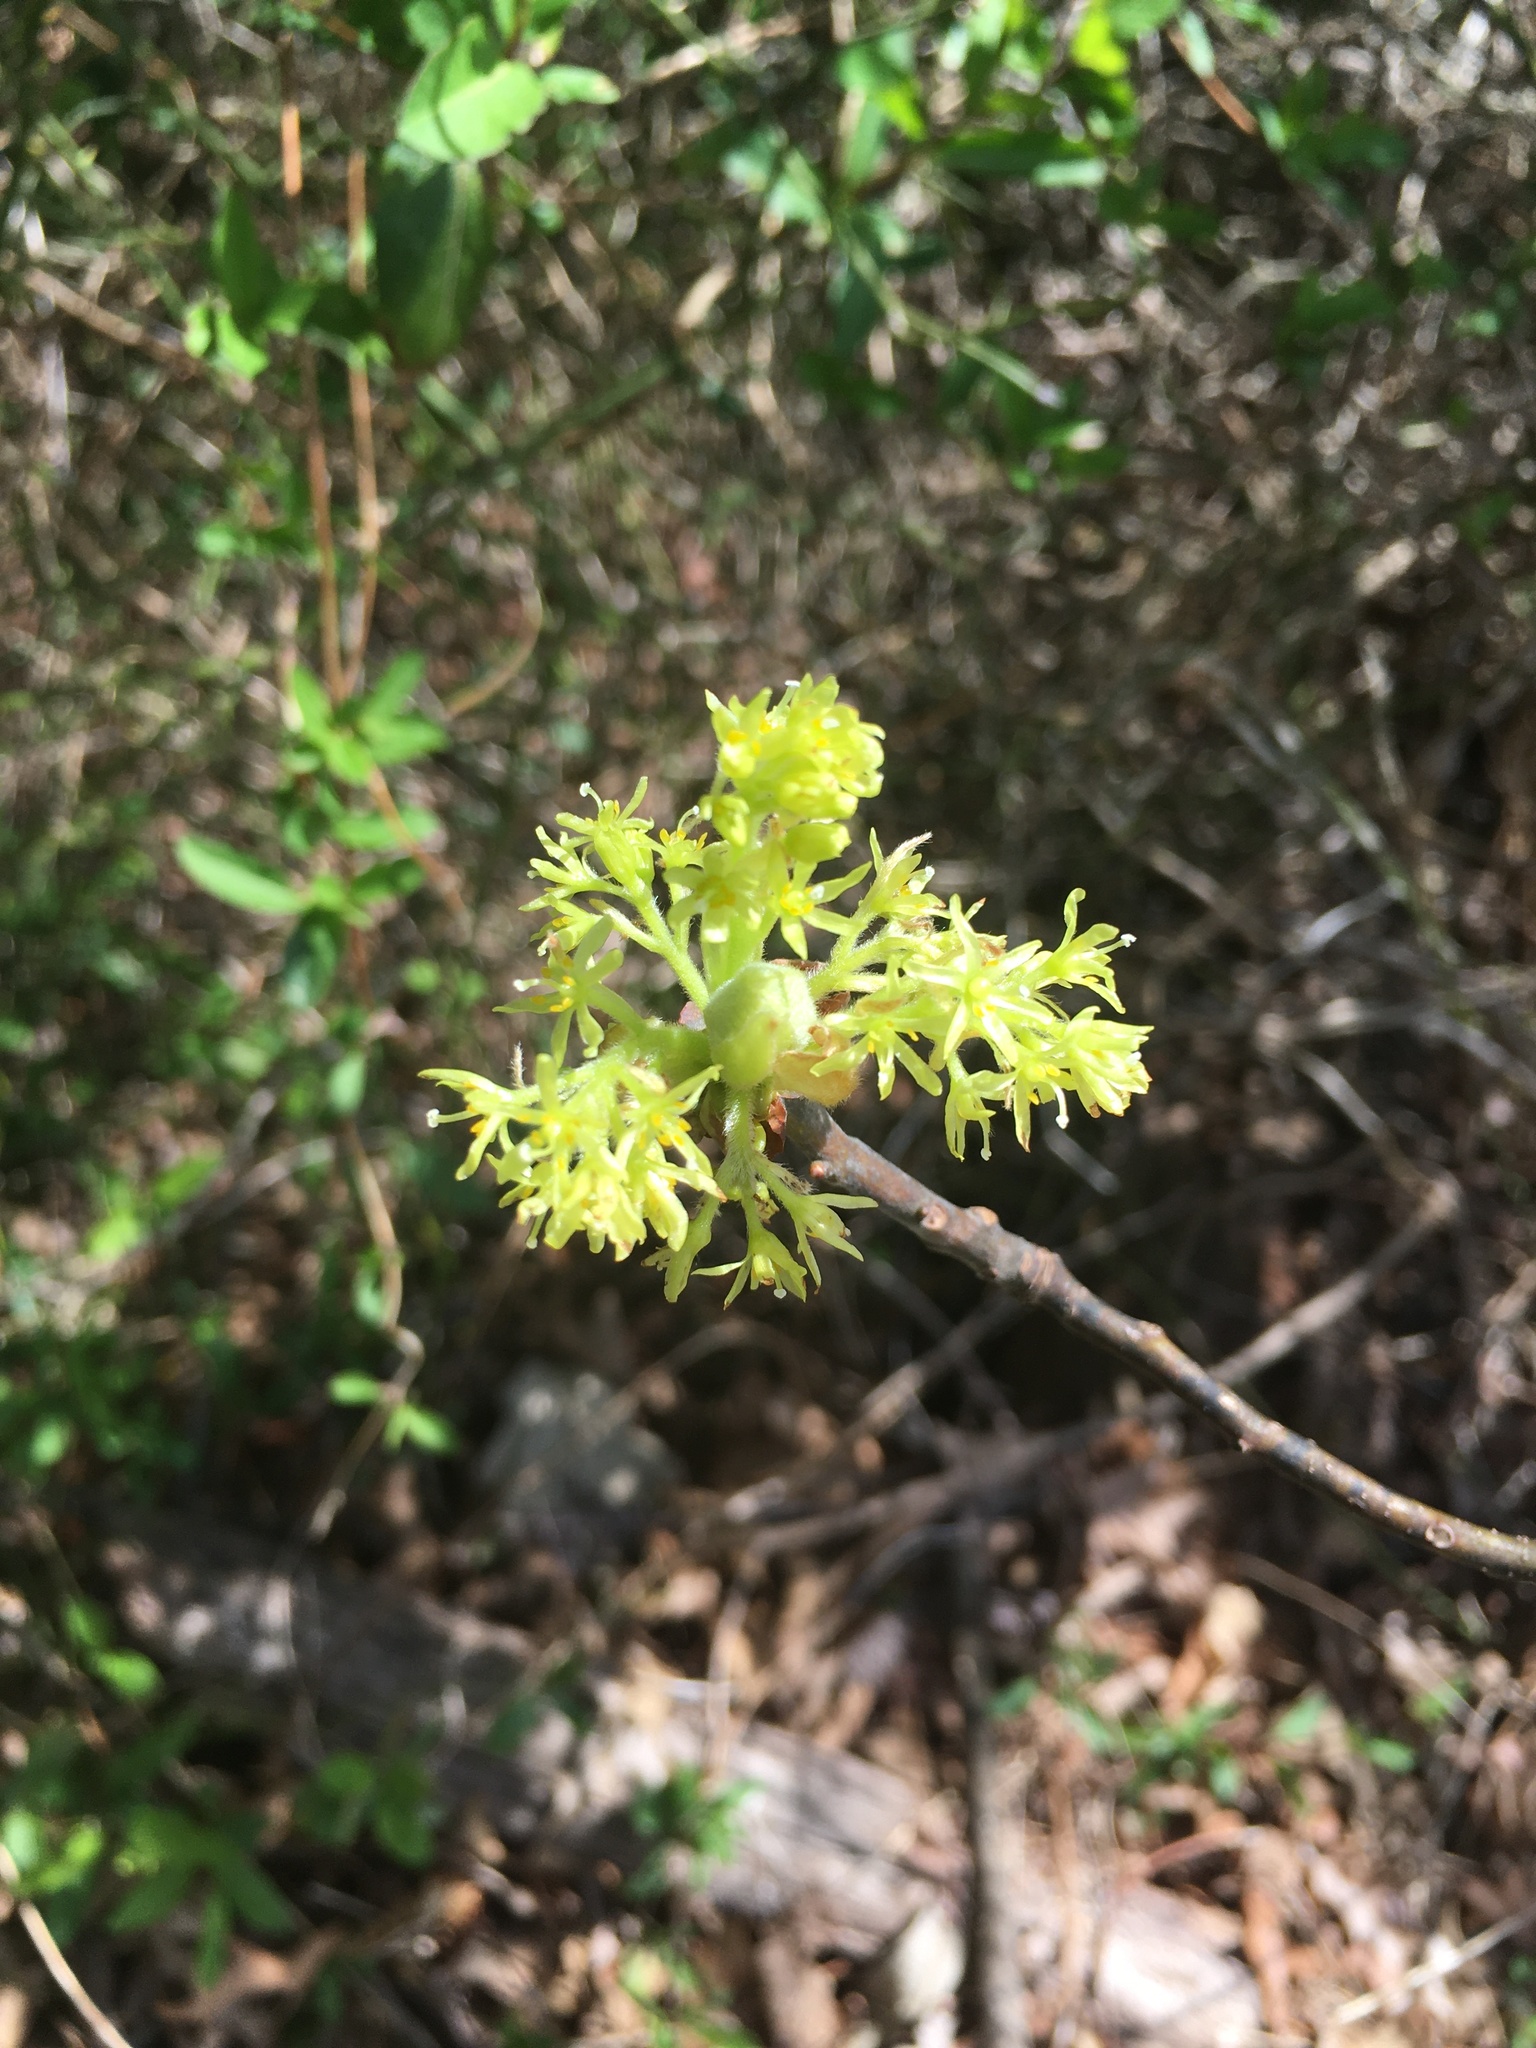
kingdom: Plantae
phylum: Tracheophyta
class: Magnoliopsida
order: Laurales
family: Lauraceae
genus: Sassafras
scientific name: Sassafras albidum
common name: Sassafras
